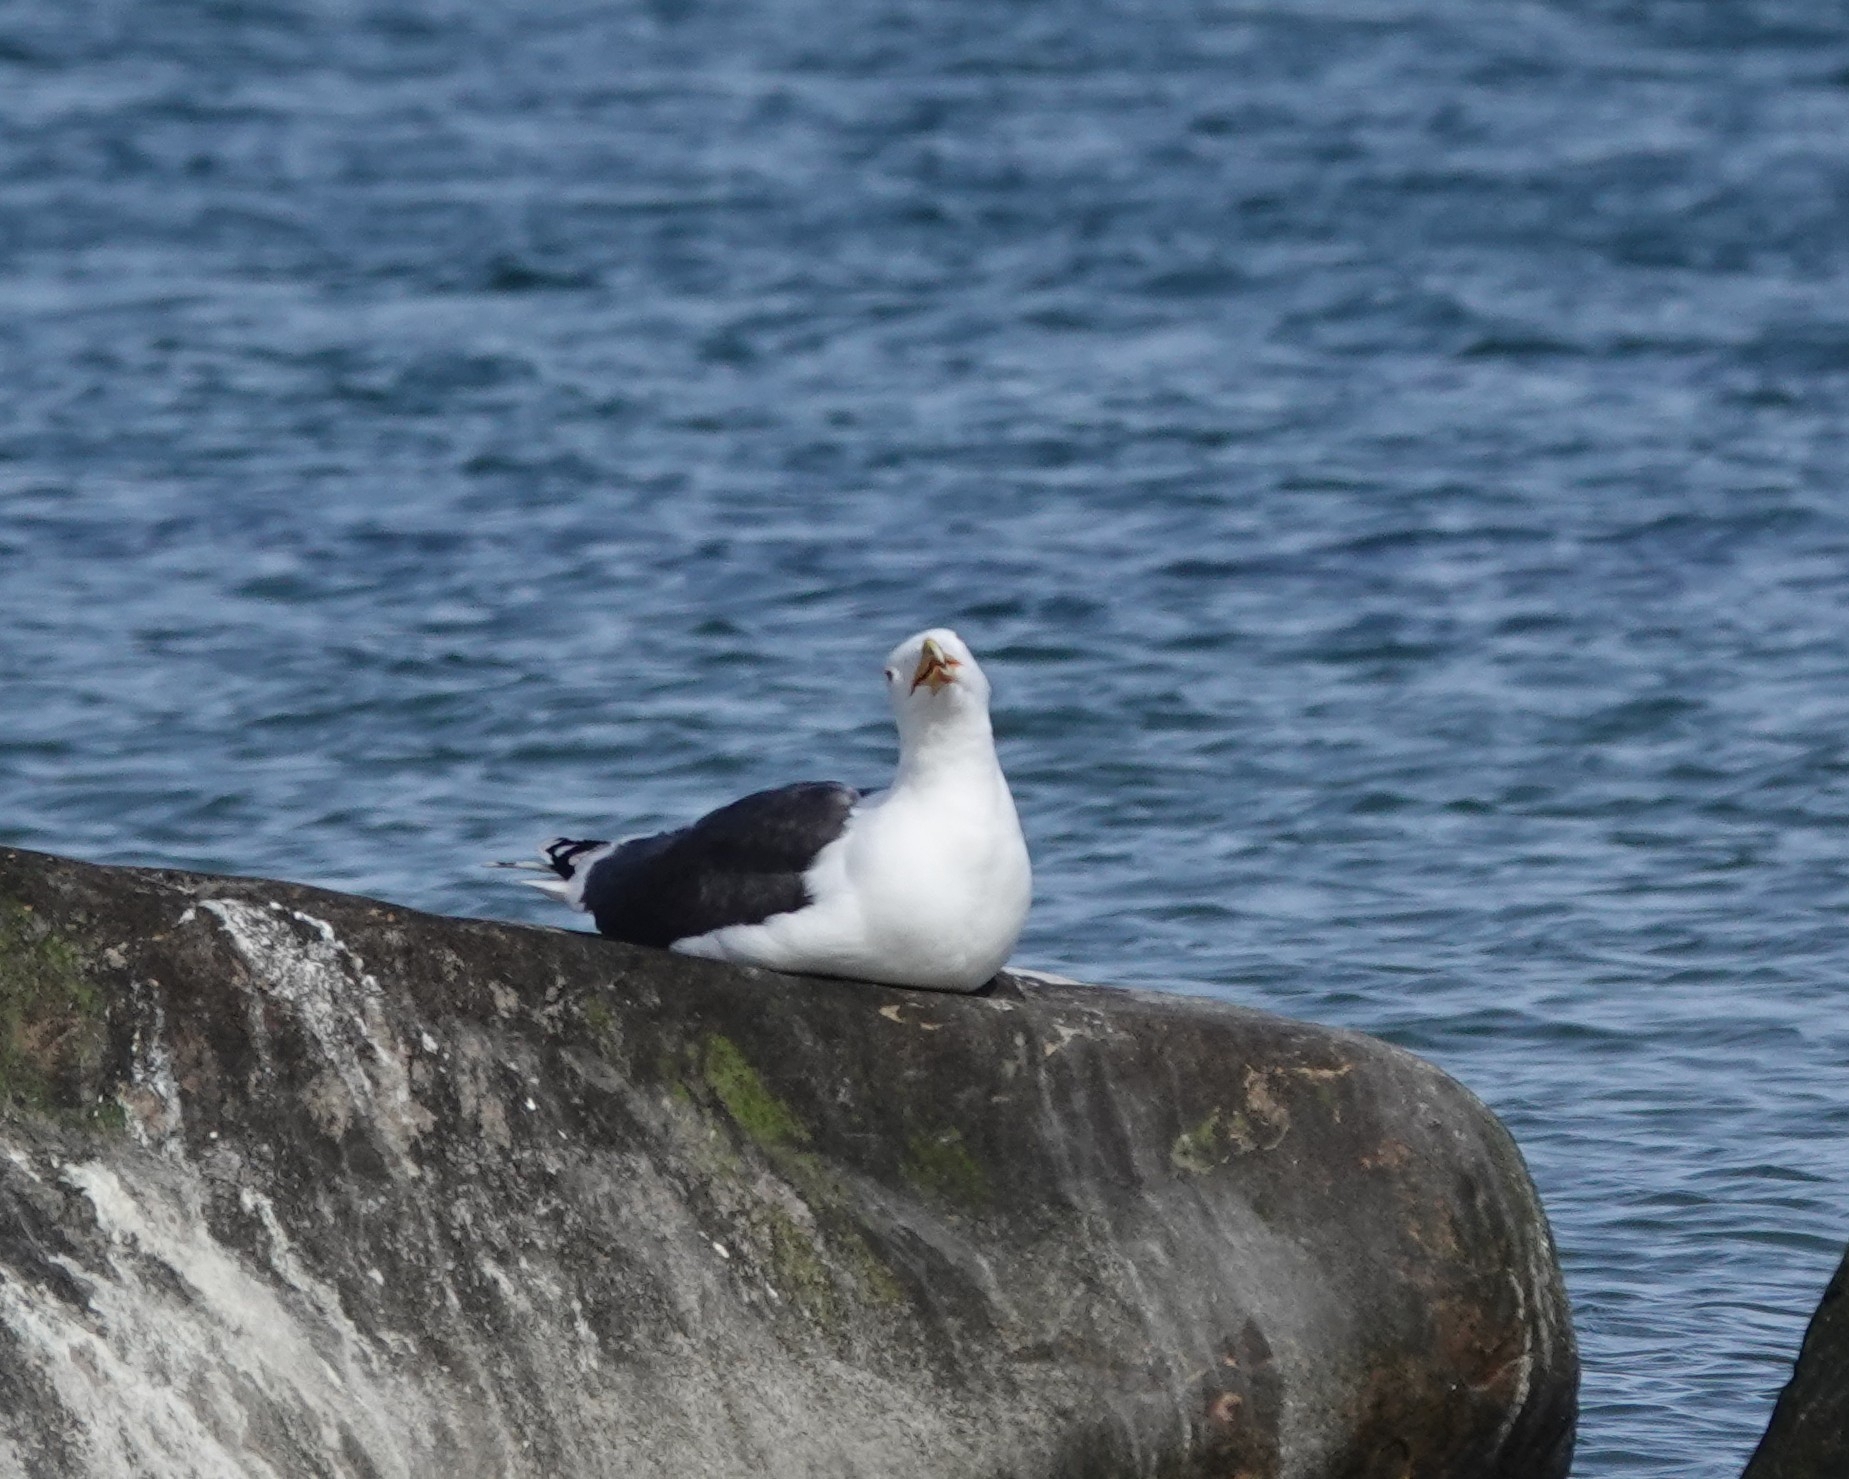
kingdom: Animalia
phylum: Chordata
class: Aves
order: Charadriiformes
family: Laridae
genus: Larus
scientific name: Larus marinus
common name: Great black-backed gull
